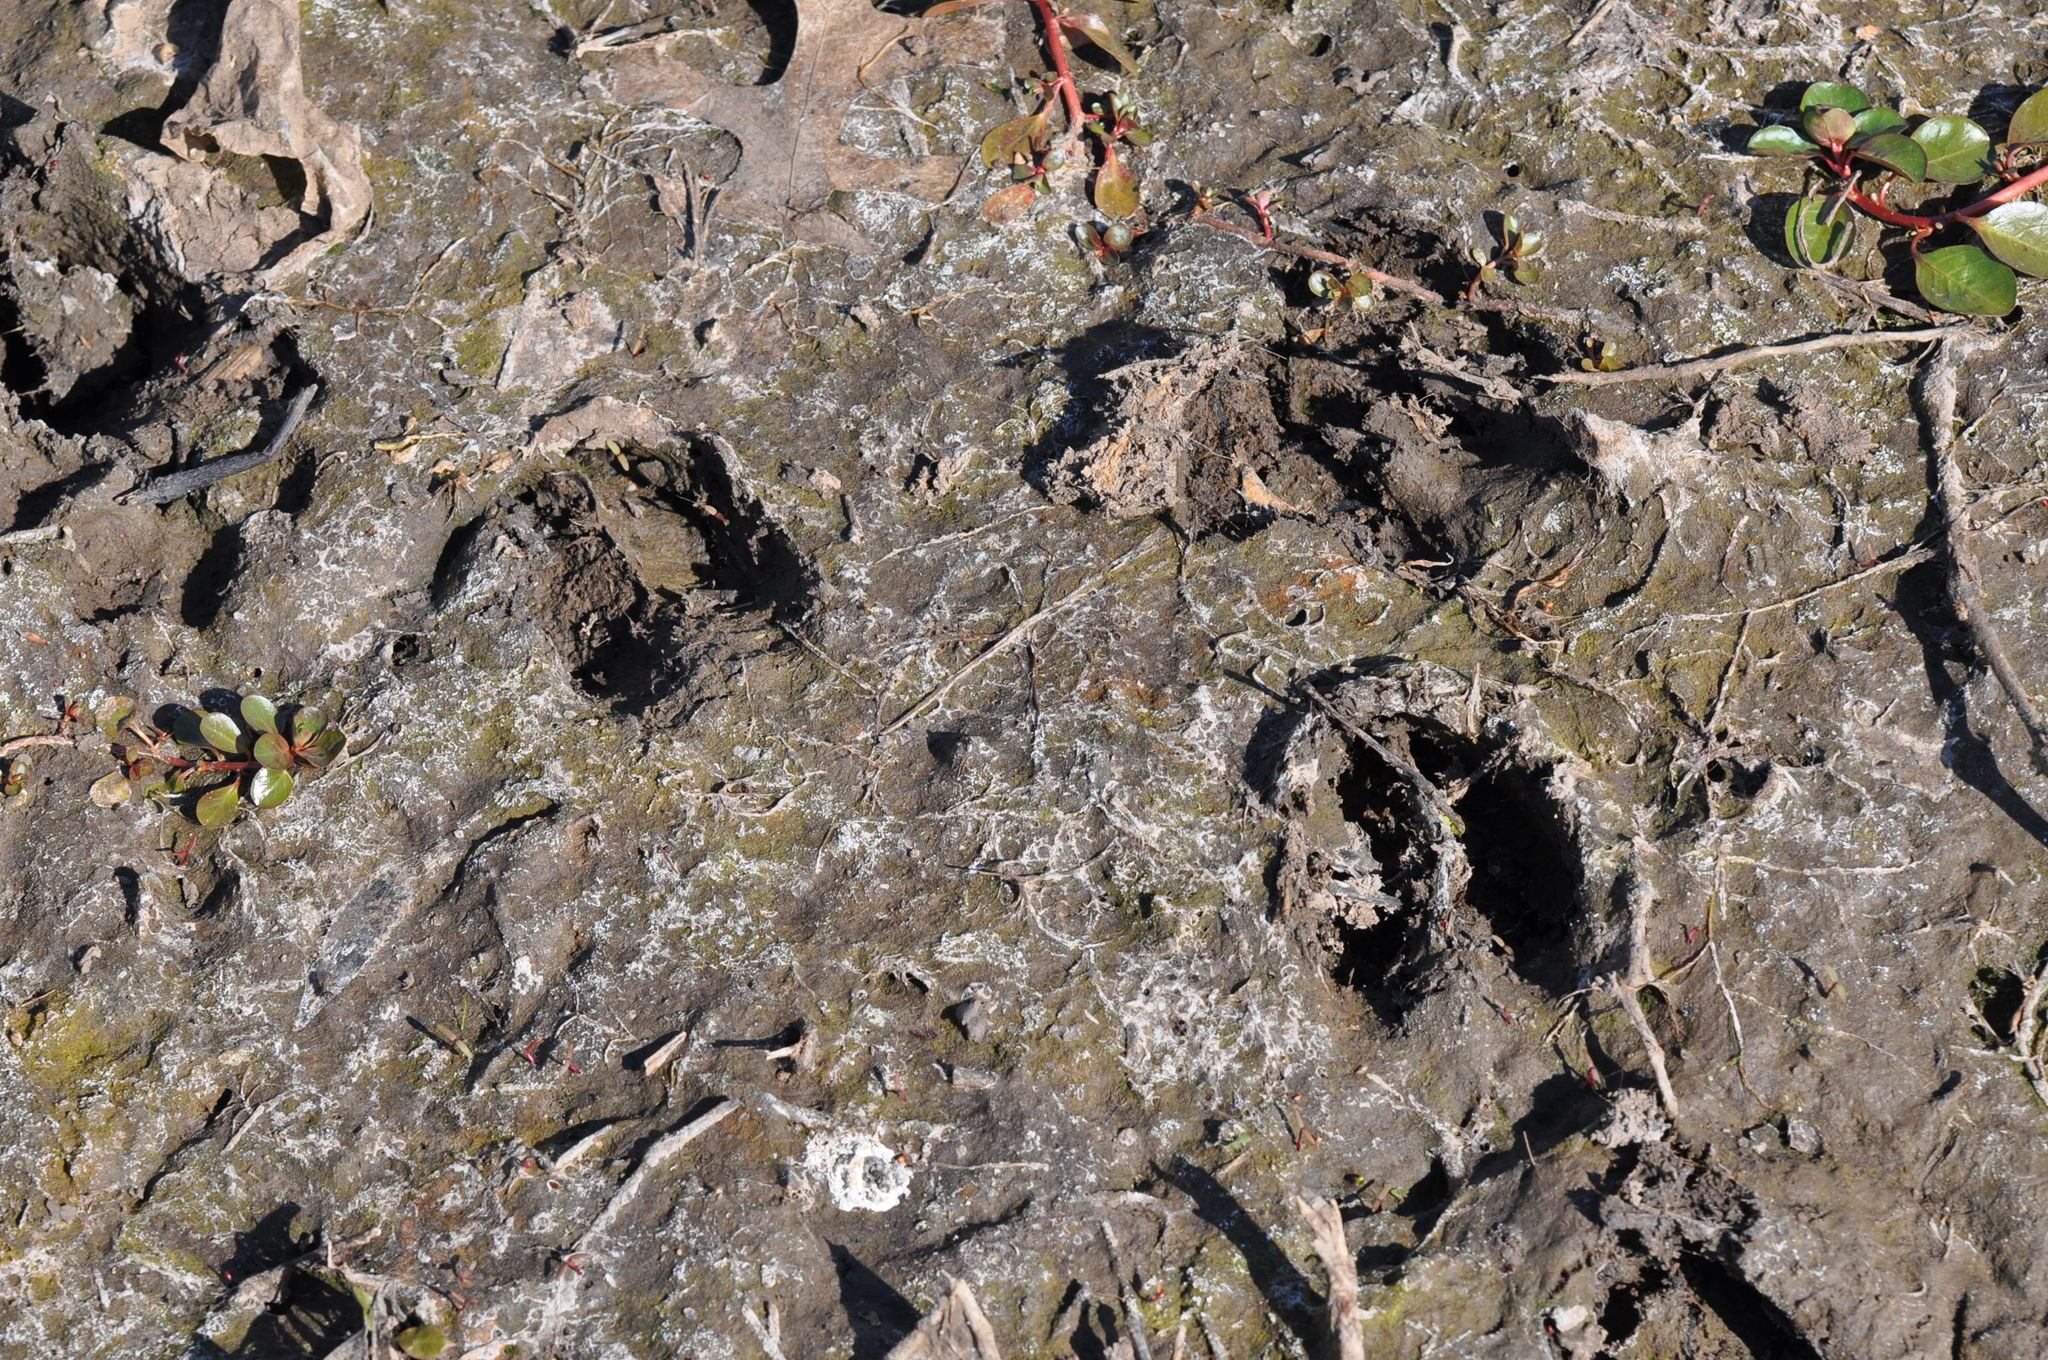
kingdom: Animalia
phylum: Chordata
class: Mammalia
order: Artiodactyla
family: Cervidae
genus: Odocoileus
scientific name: Odocoileus virginianus
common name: White-tailed deer
